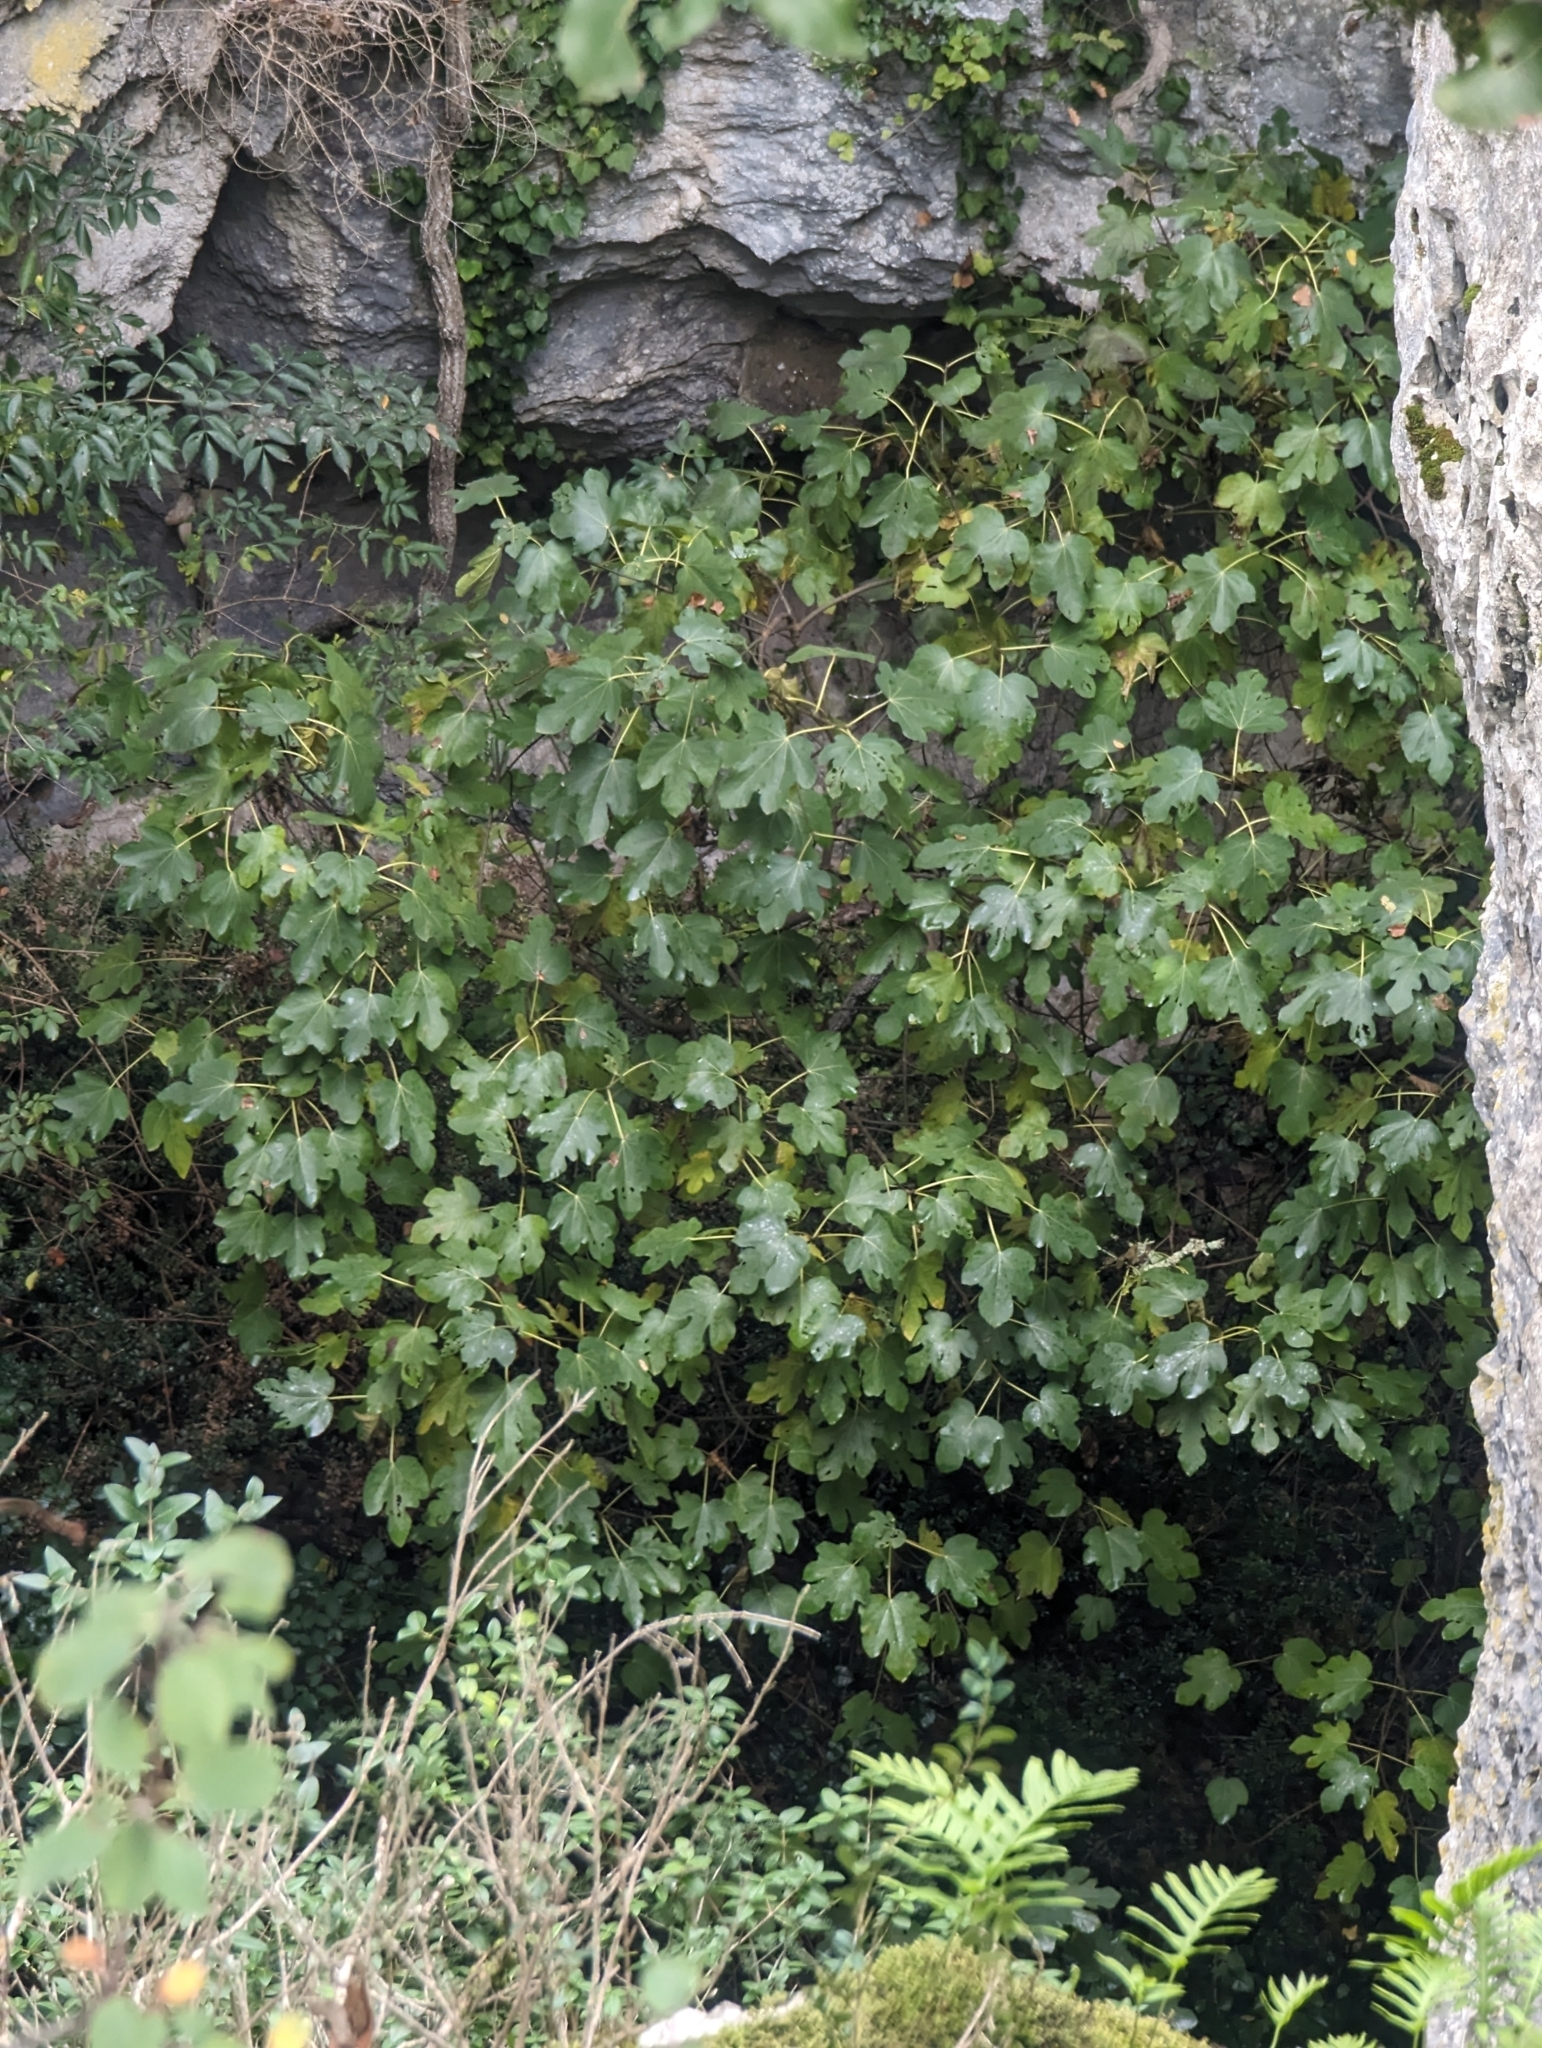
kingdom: Plantae
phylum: Tracheophyta
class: Magnoliopsida
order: Rosales
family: Moraceae
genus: Ficus
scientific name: Ficus carica
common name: Fig
